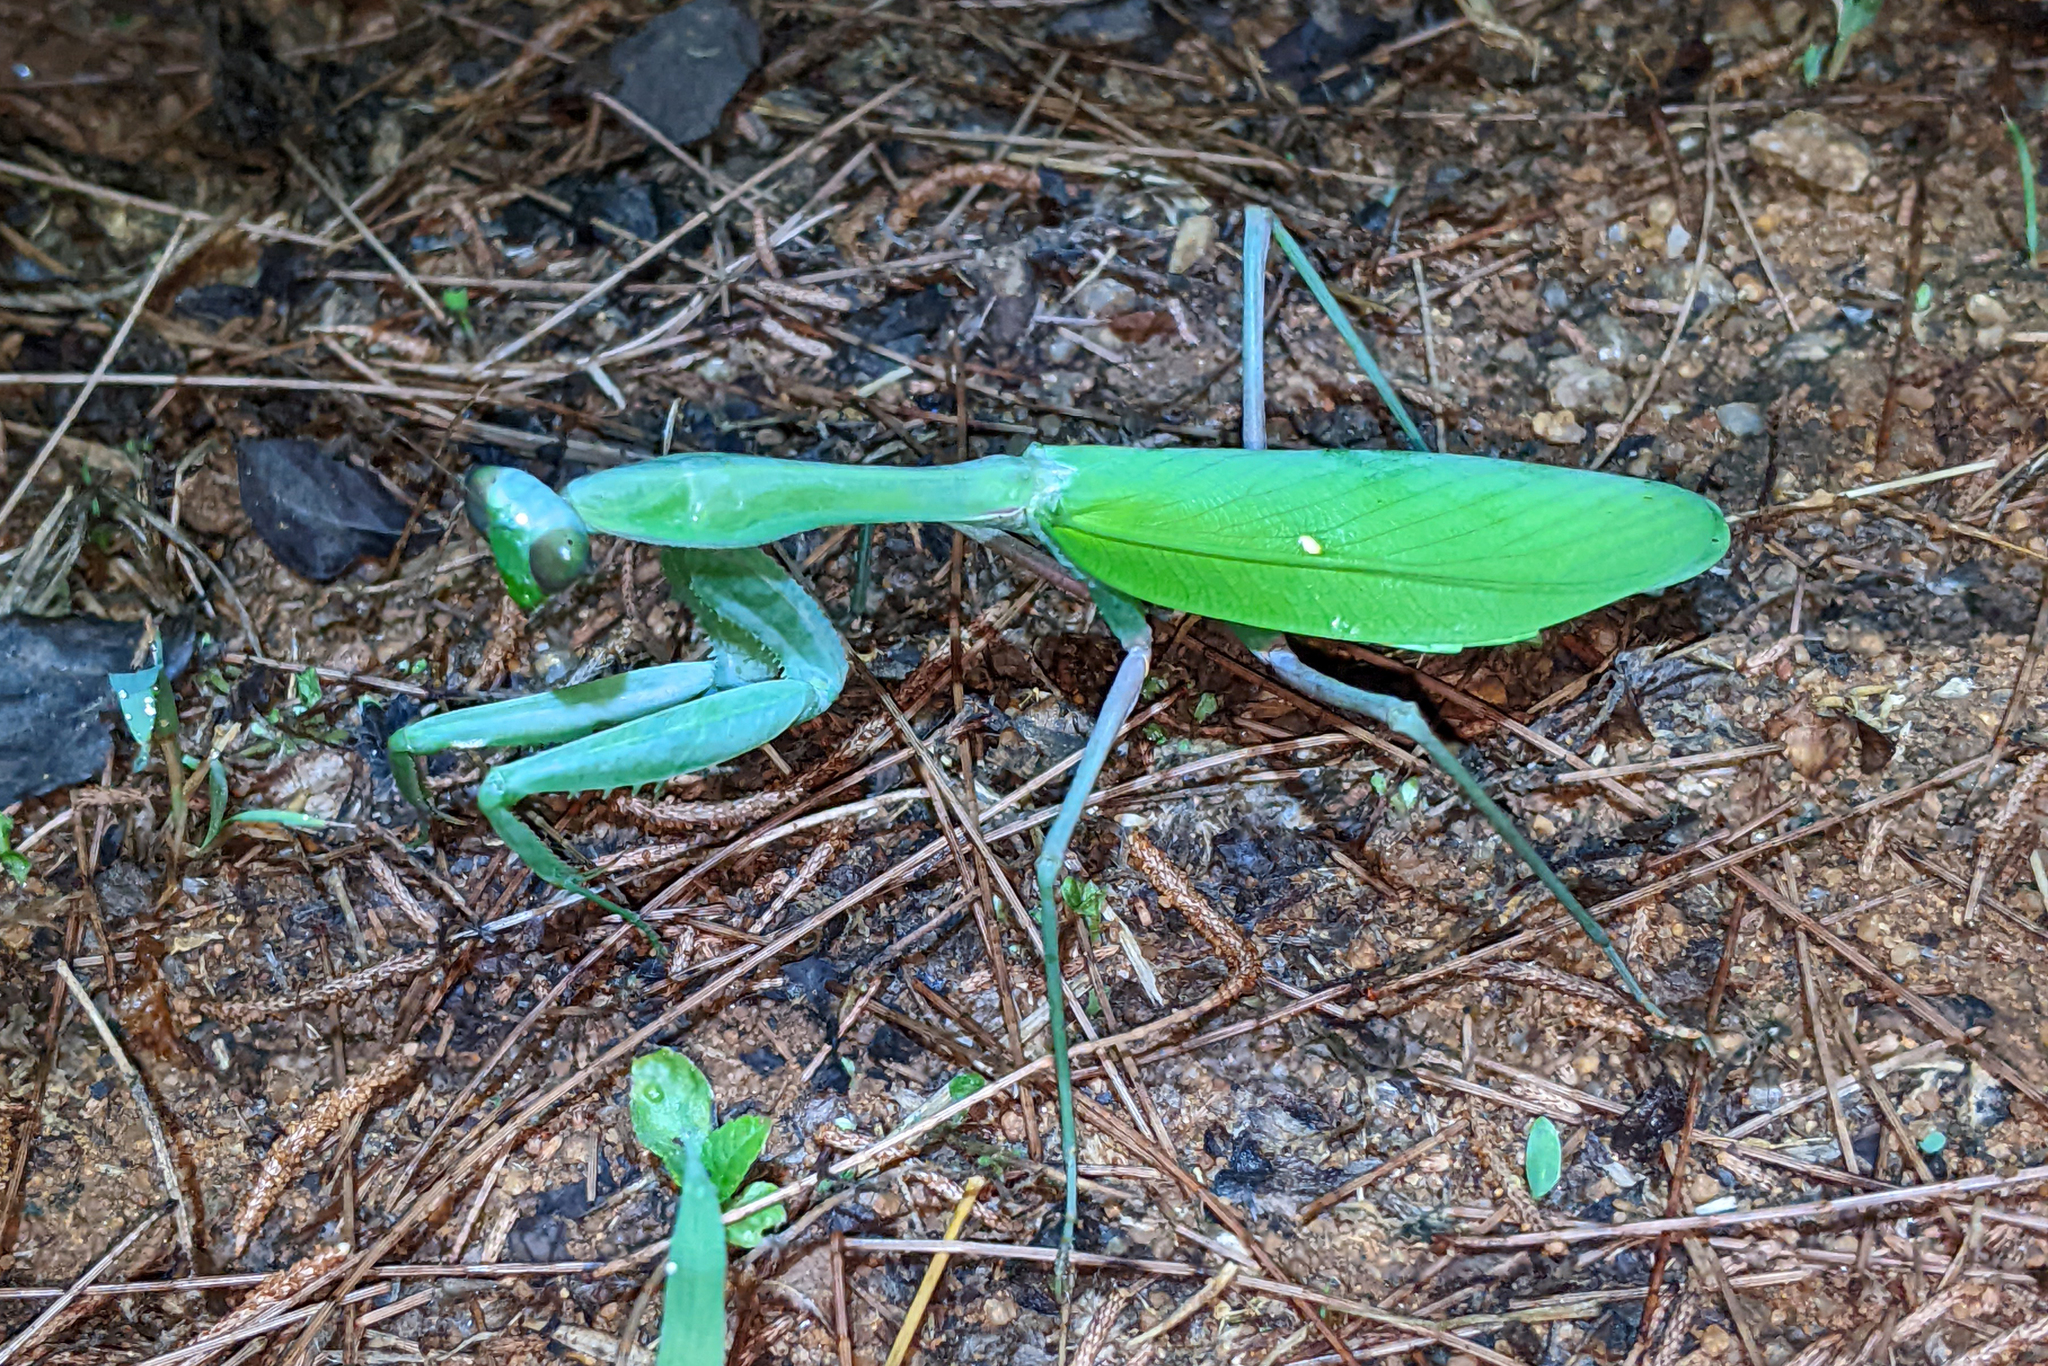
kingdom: Animalia
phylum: Arthropoda
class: Insecta
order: Mantodea
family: Mantidae
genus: Hierodula
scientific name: Hierodula membranacea
